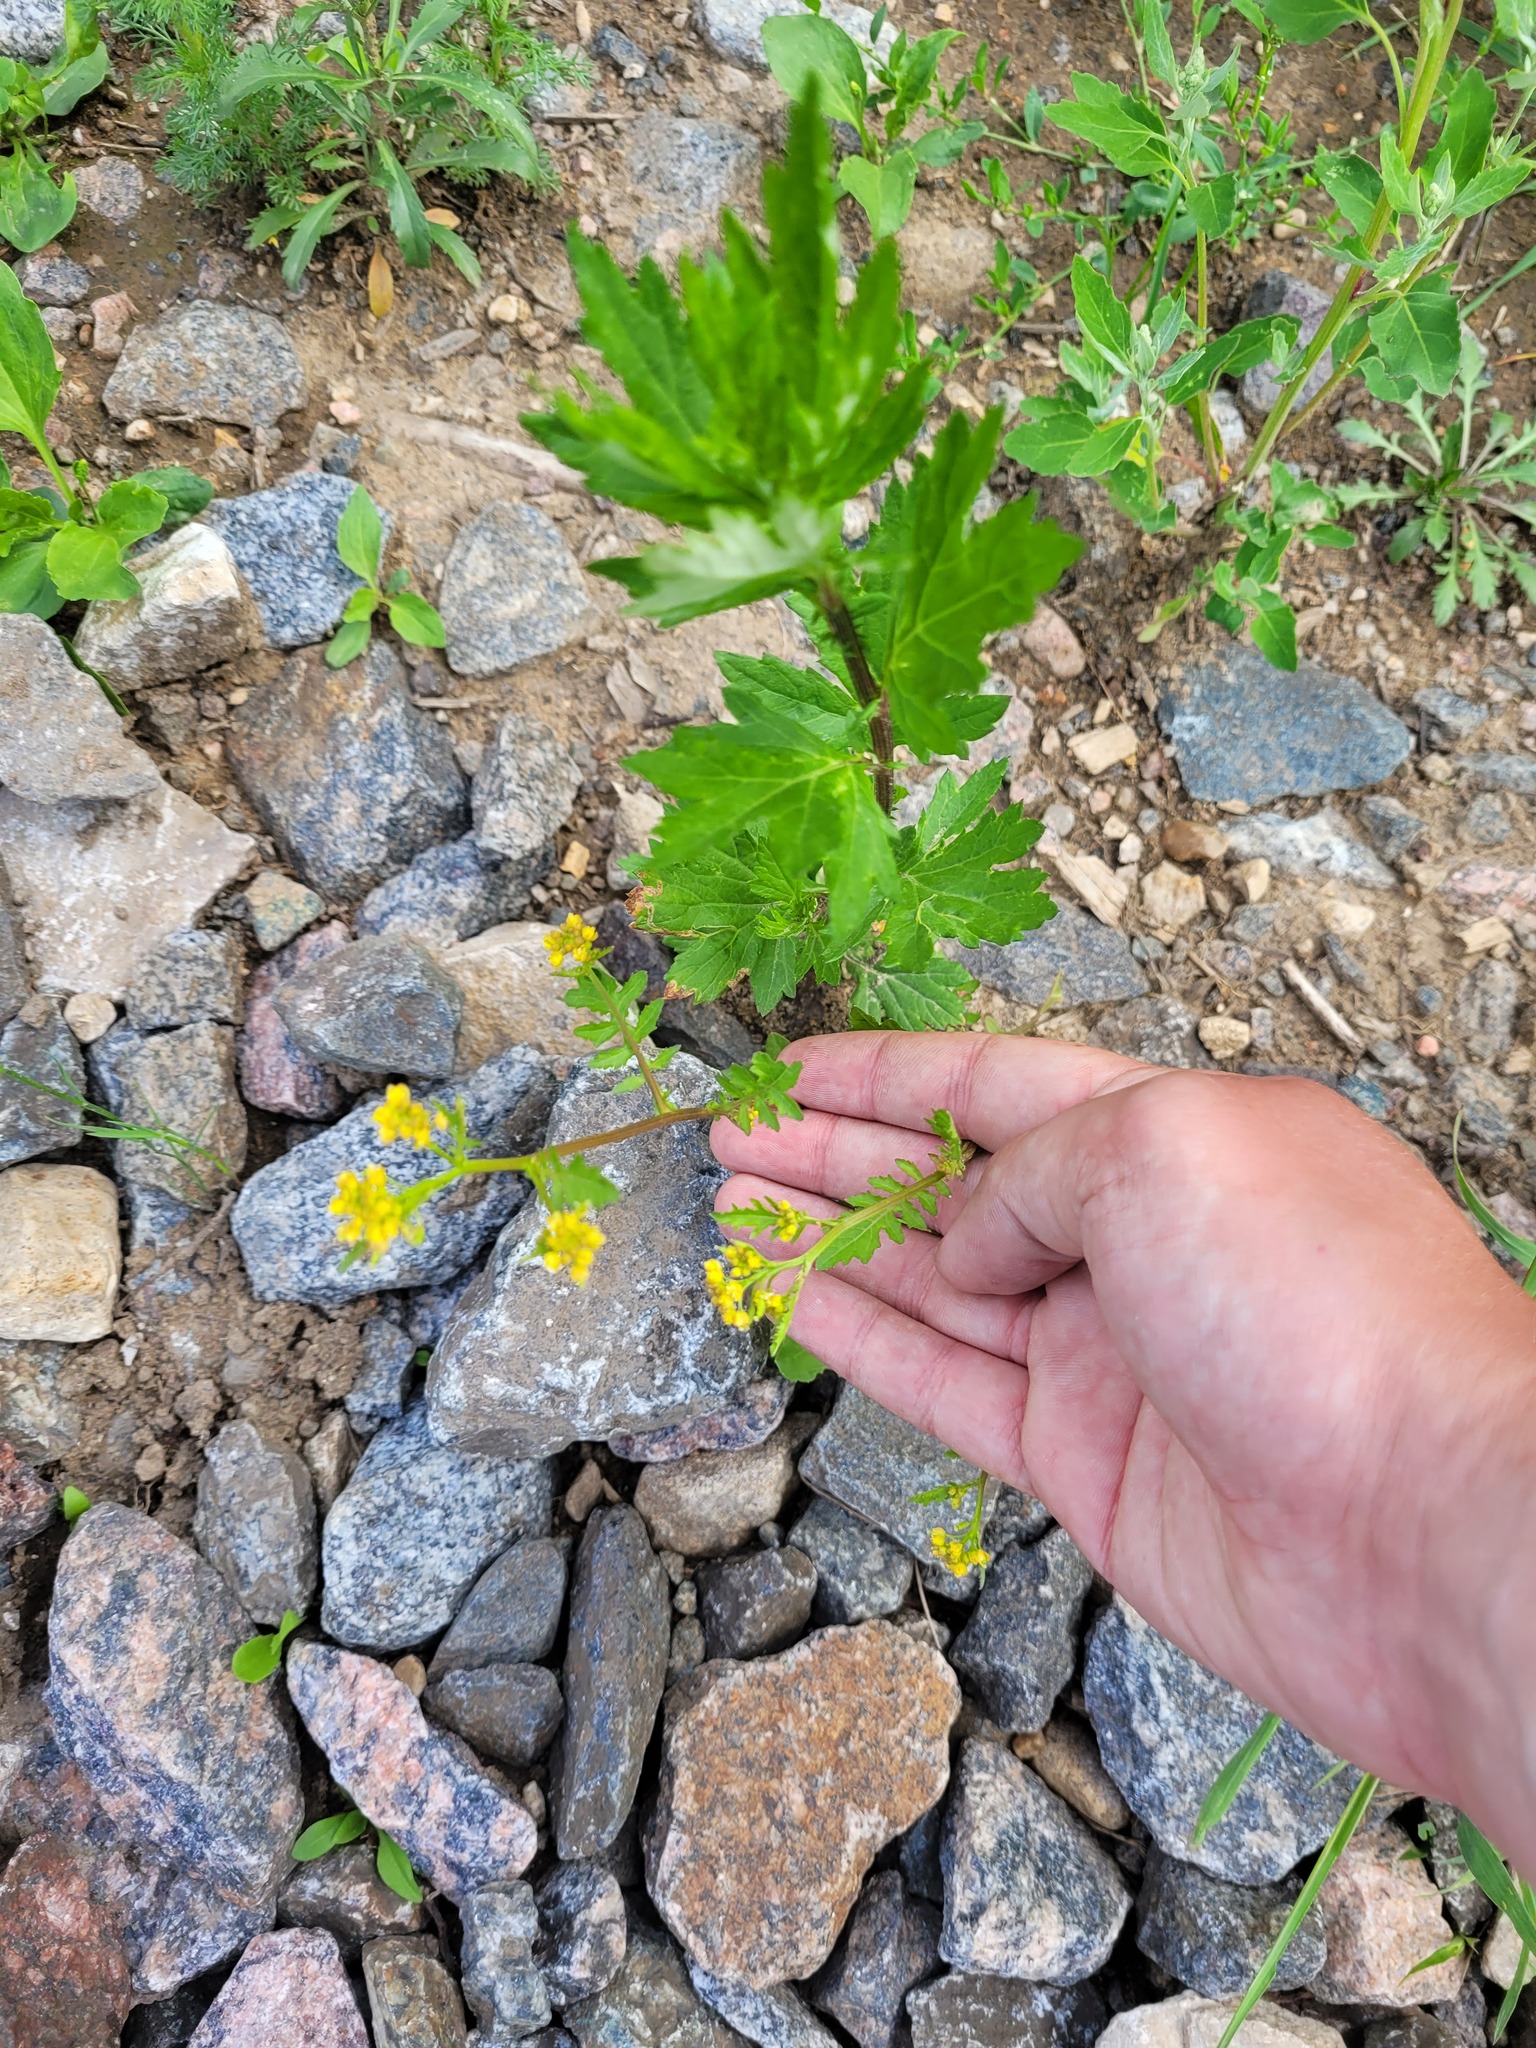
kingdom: Plantae
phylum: Tracheophyta
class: Magnoliopsida
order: Brassicales
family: Brassicaceae
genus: Rorippa
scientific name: Rorippa palustris
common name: Marsh yellow-cress
